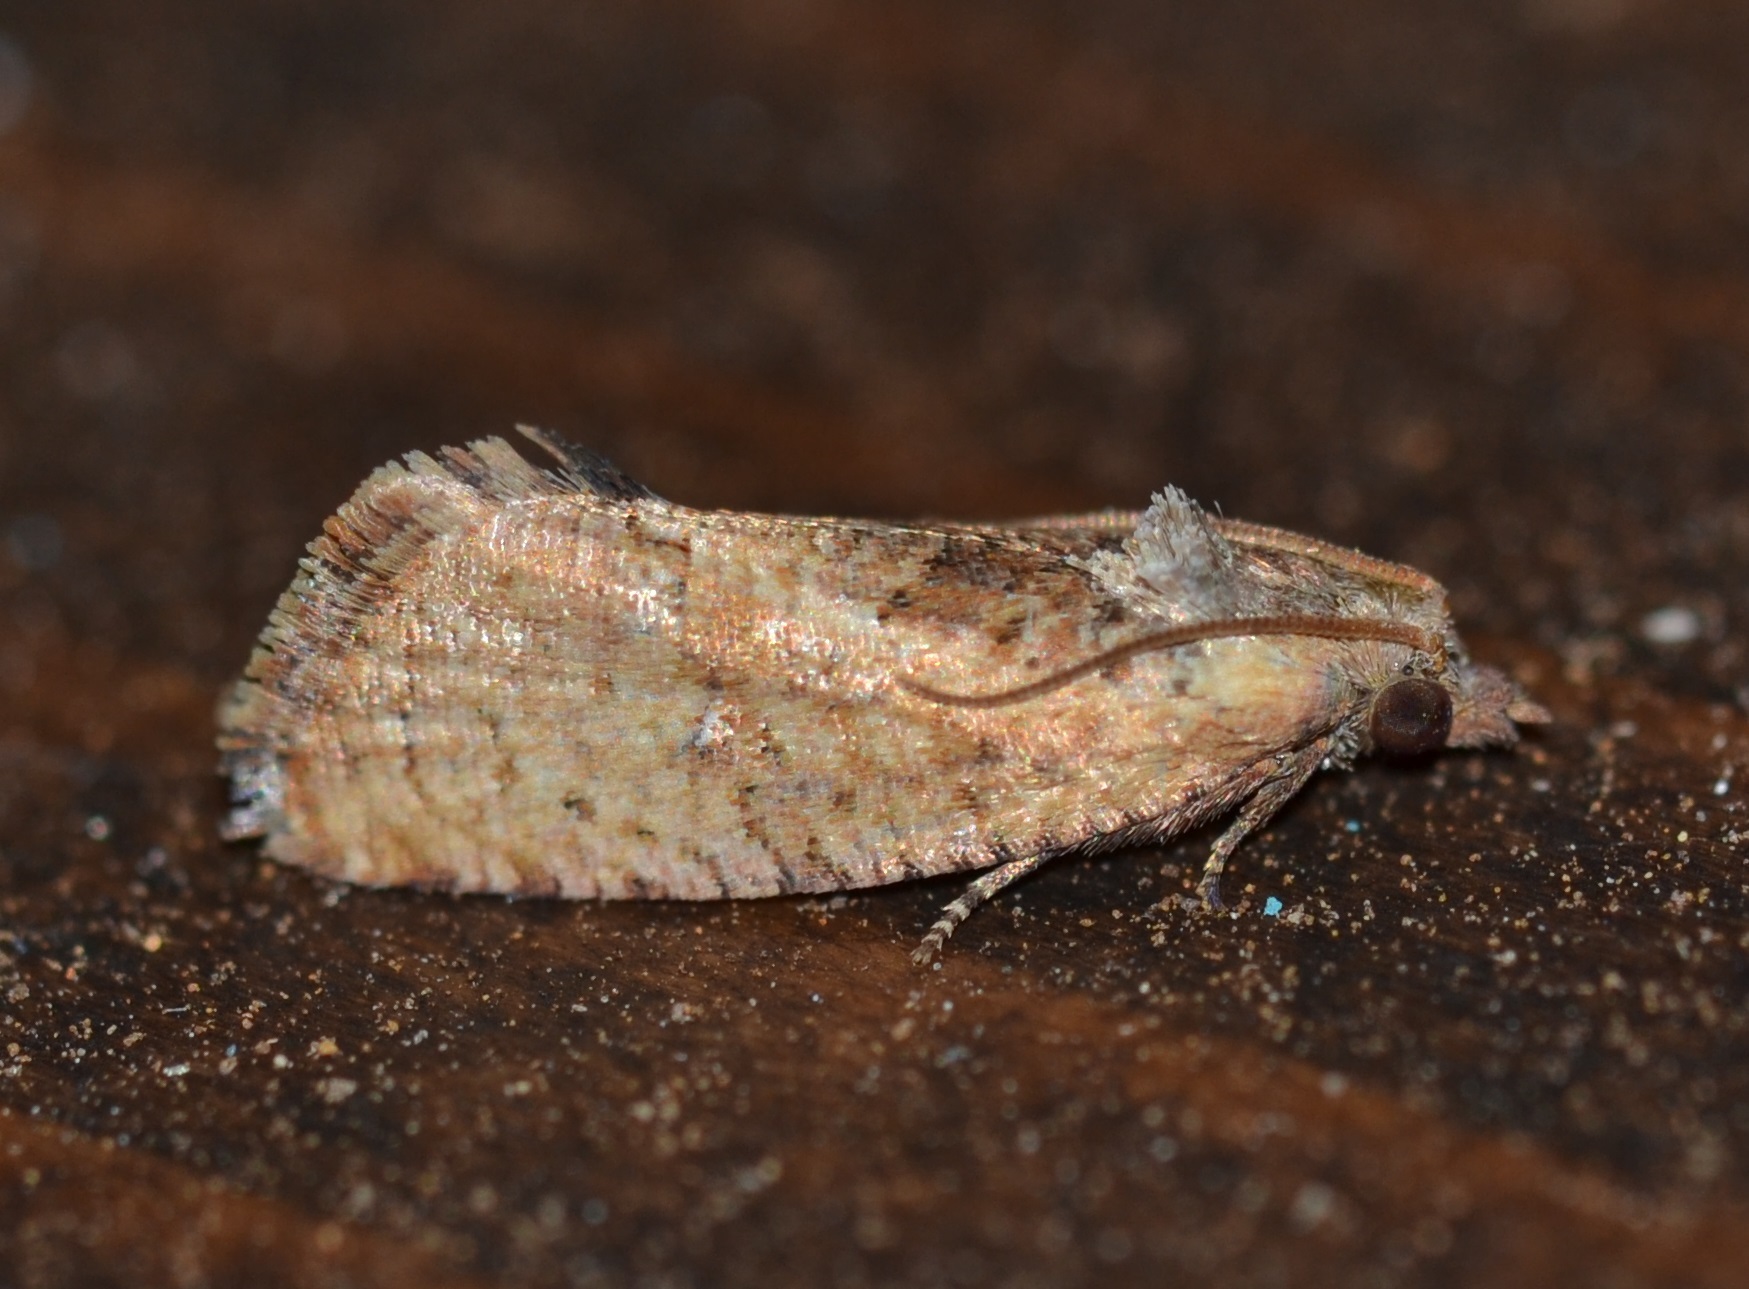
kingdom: Animalia
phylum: Arthropoda
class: Insecta
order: Lepidoptera
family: Tortricidae
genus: Cryptophlebia
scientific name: Cryptophlebia illepida
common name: Moth
